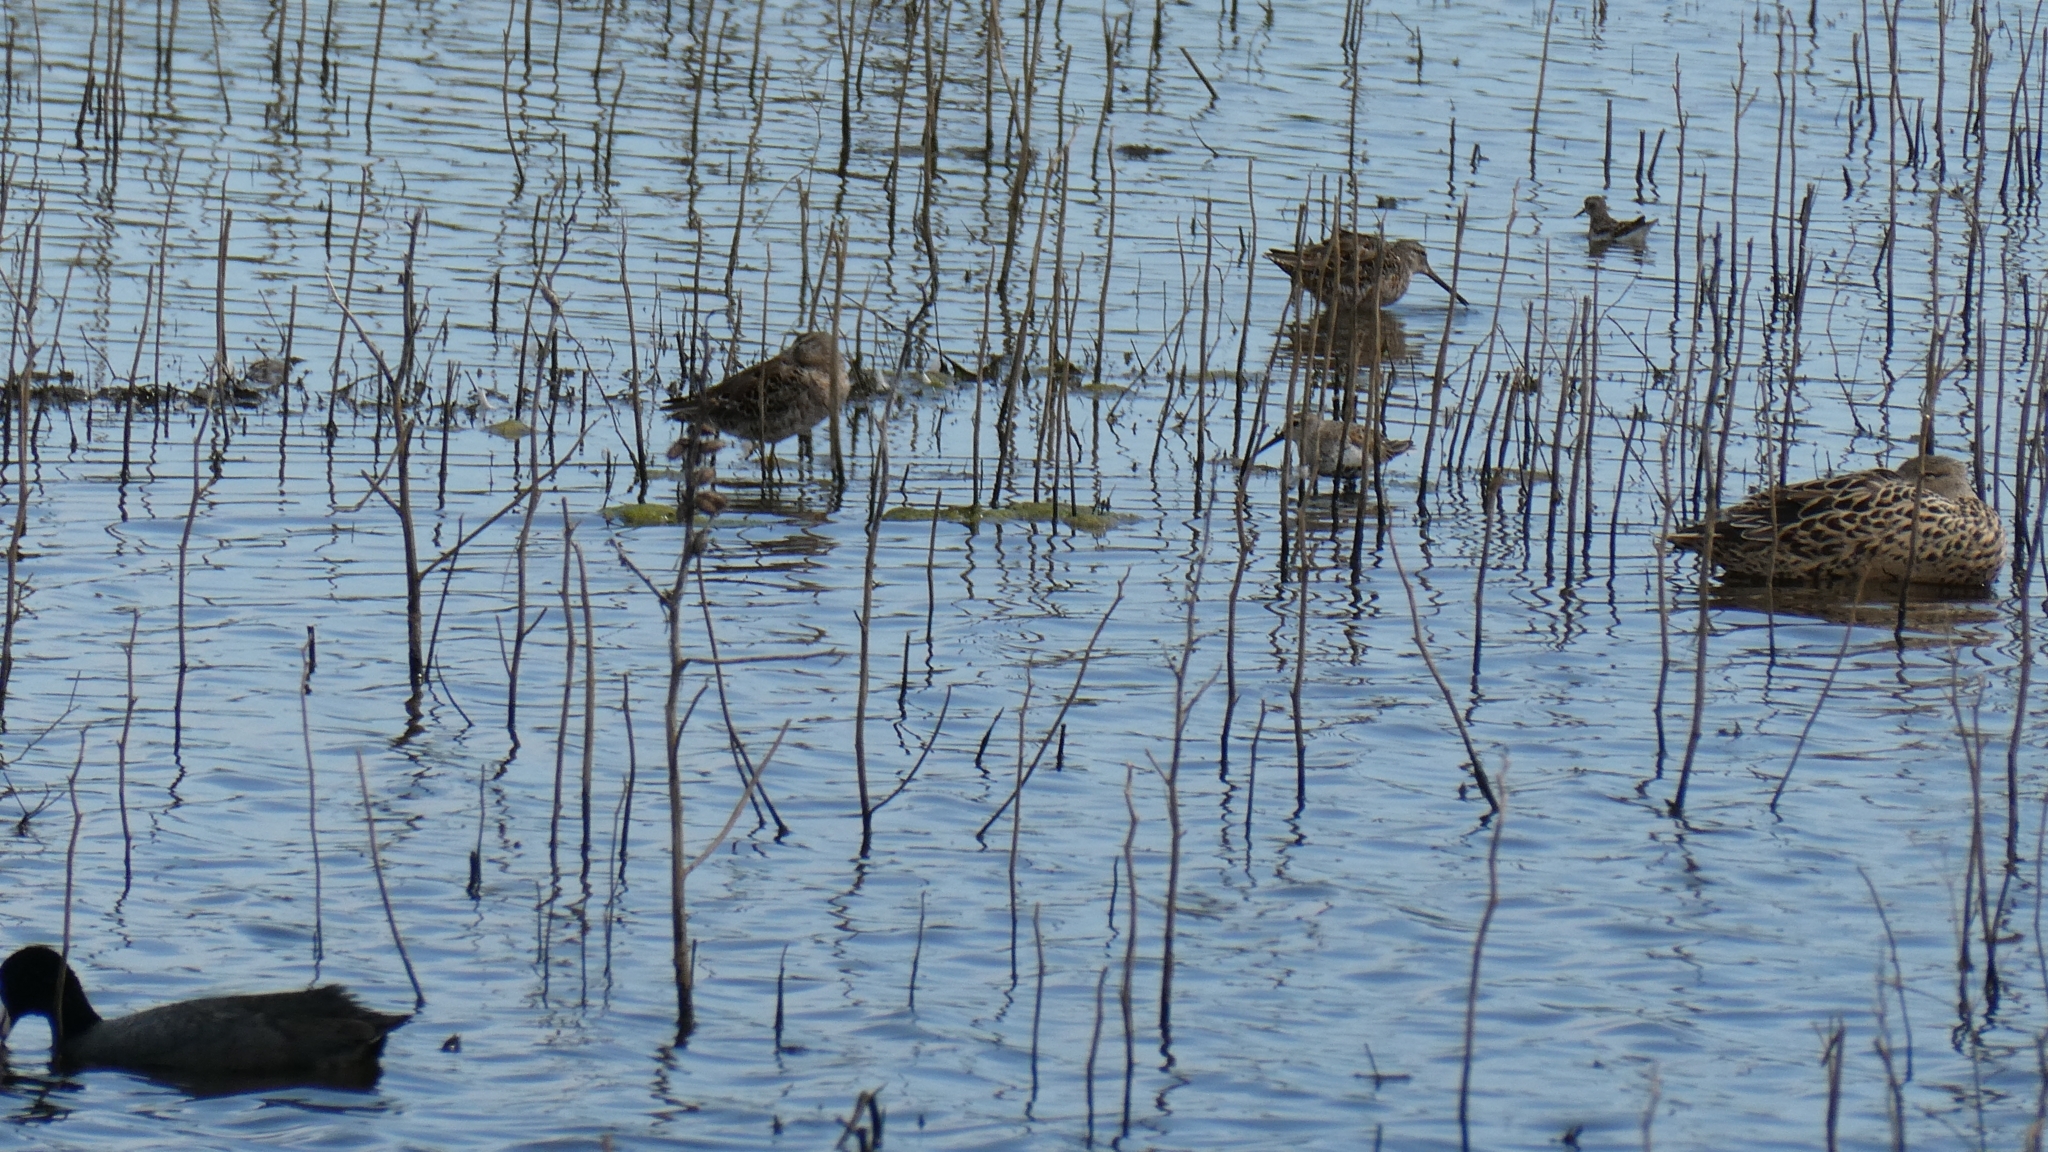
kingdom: Animalia
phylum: Chordata
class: Aves
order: Charadriiformes
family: Scolopacidae
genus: Limnodromus
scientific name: Limnodromus scolopaceus
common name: Long-billed dowitcher
